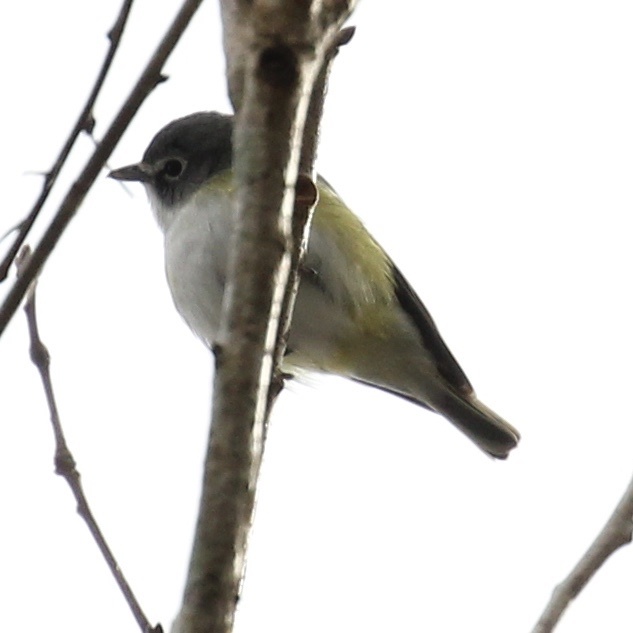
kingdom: Animalia
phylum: Chordata
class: Aves
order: Passeriformes
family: Vireonidae
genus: Vireo
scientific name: Vireo solitarius
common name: Blue-headed vireo
